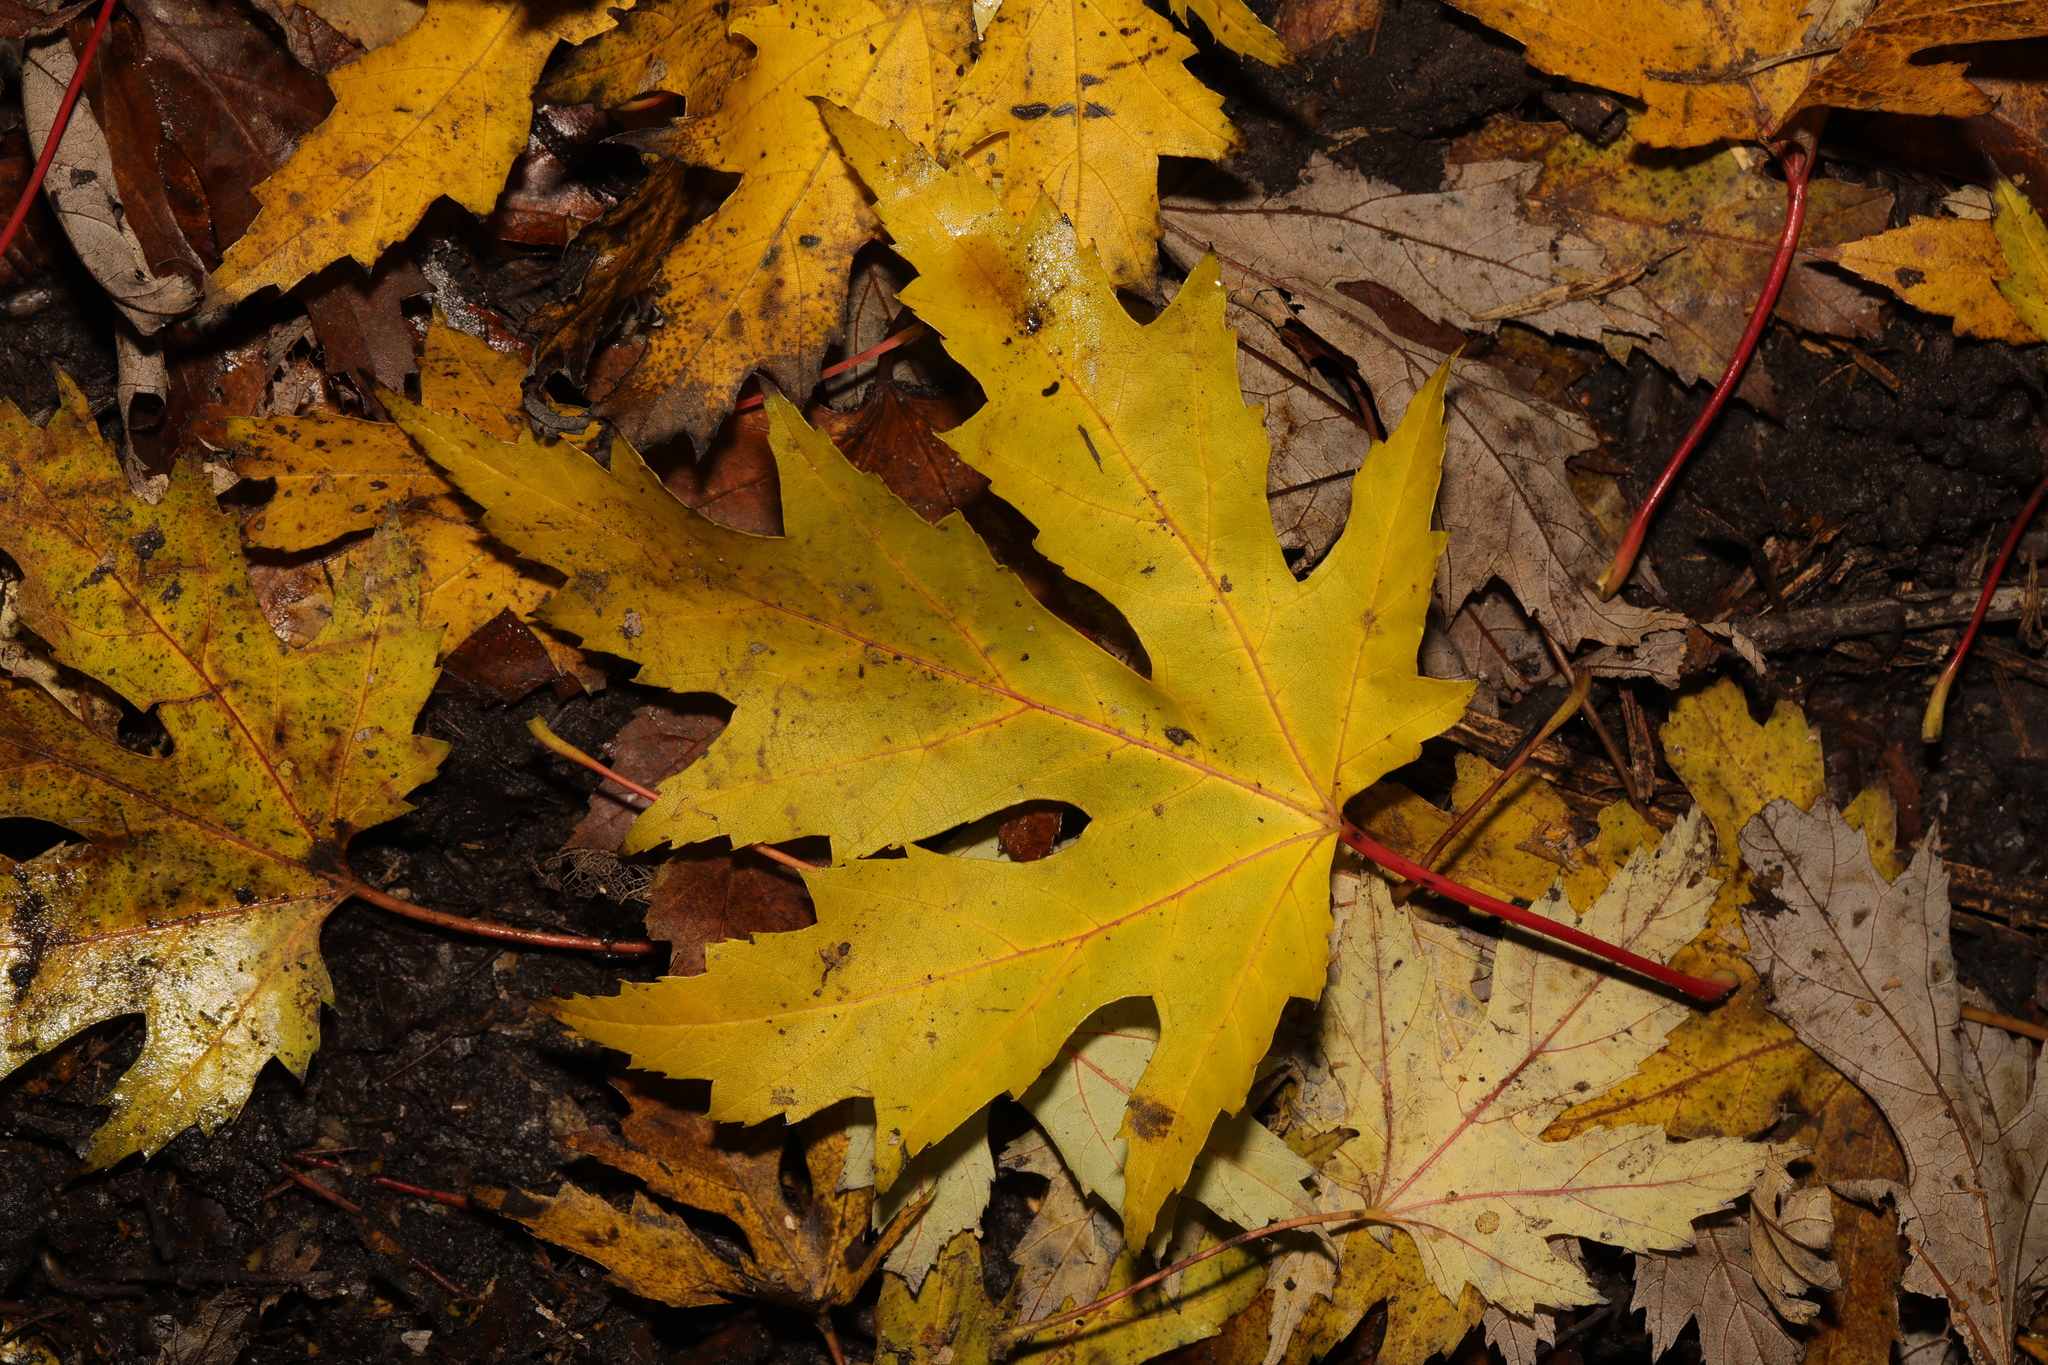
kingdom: Plantae
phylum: Tracheophyta
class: Magnoliopsida
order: Sapindales
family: Sapindaceae
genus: Acer
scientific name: Acer saccharinum
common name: Silver maple
